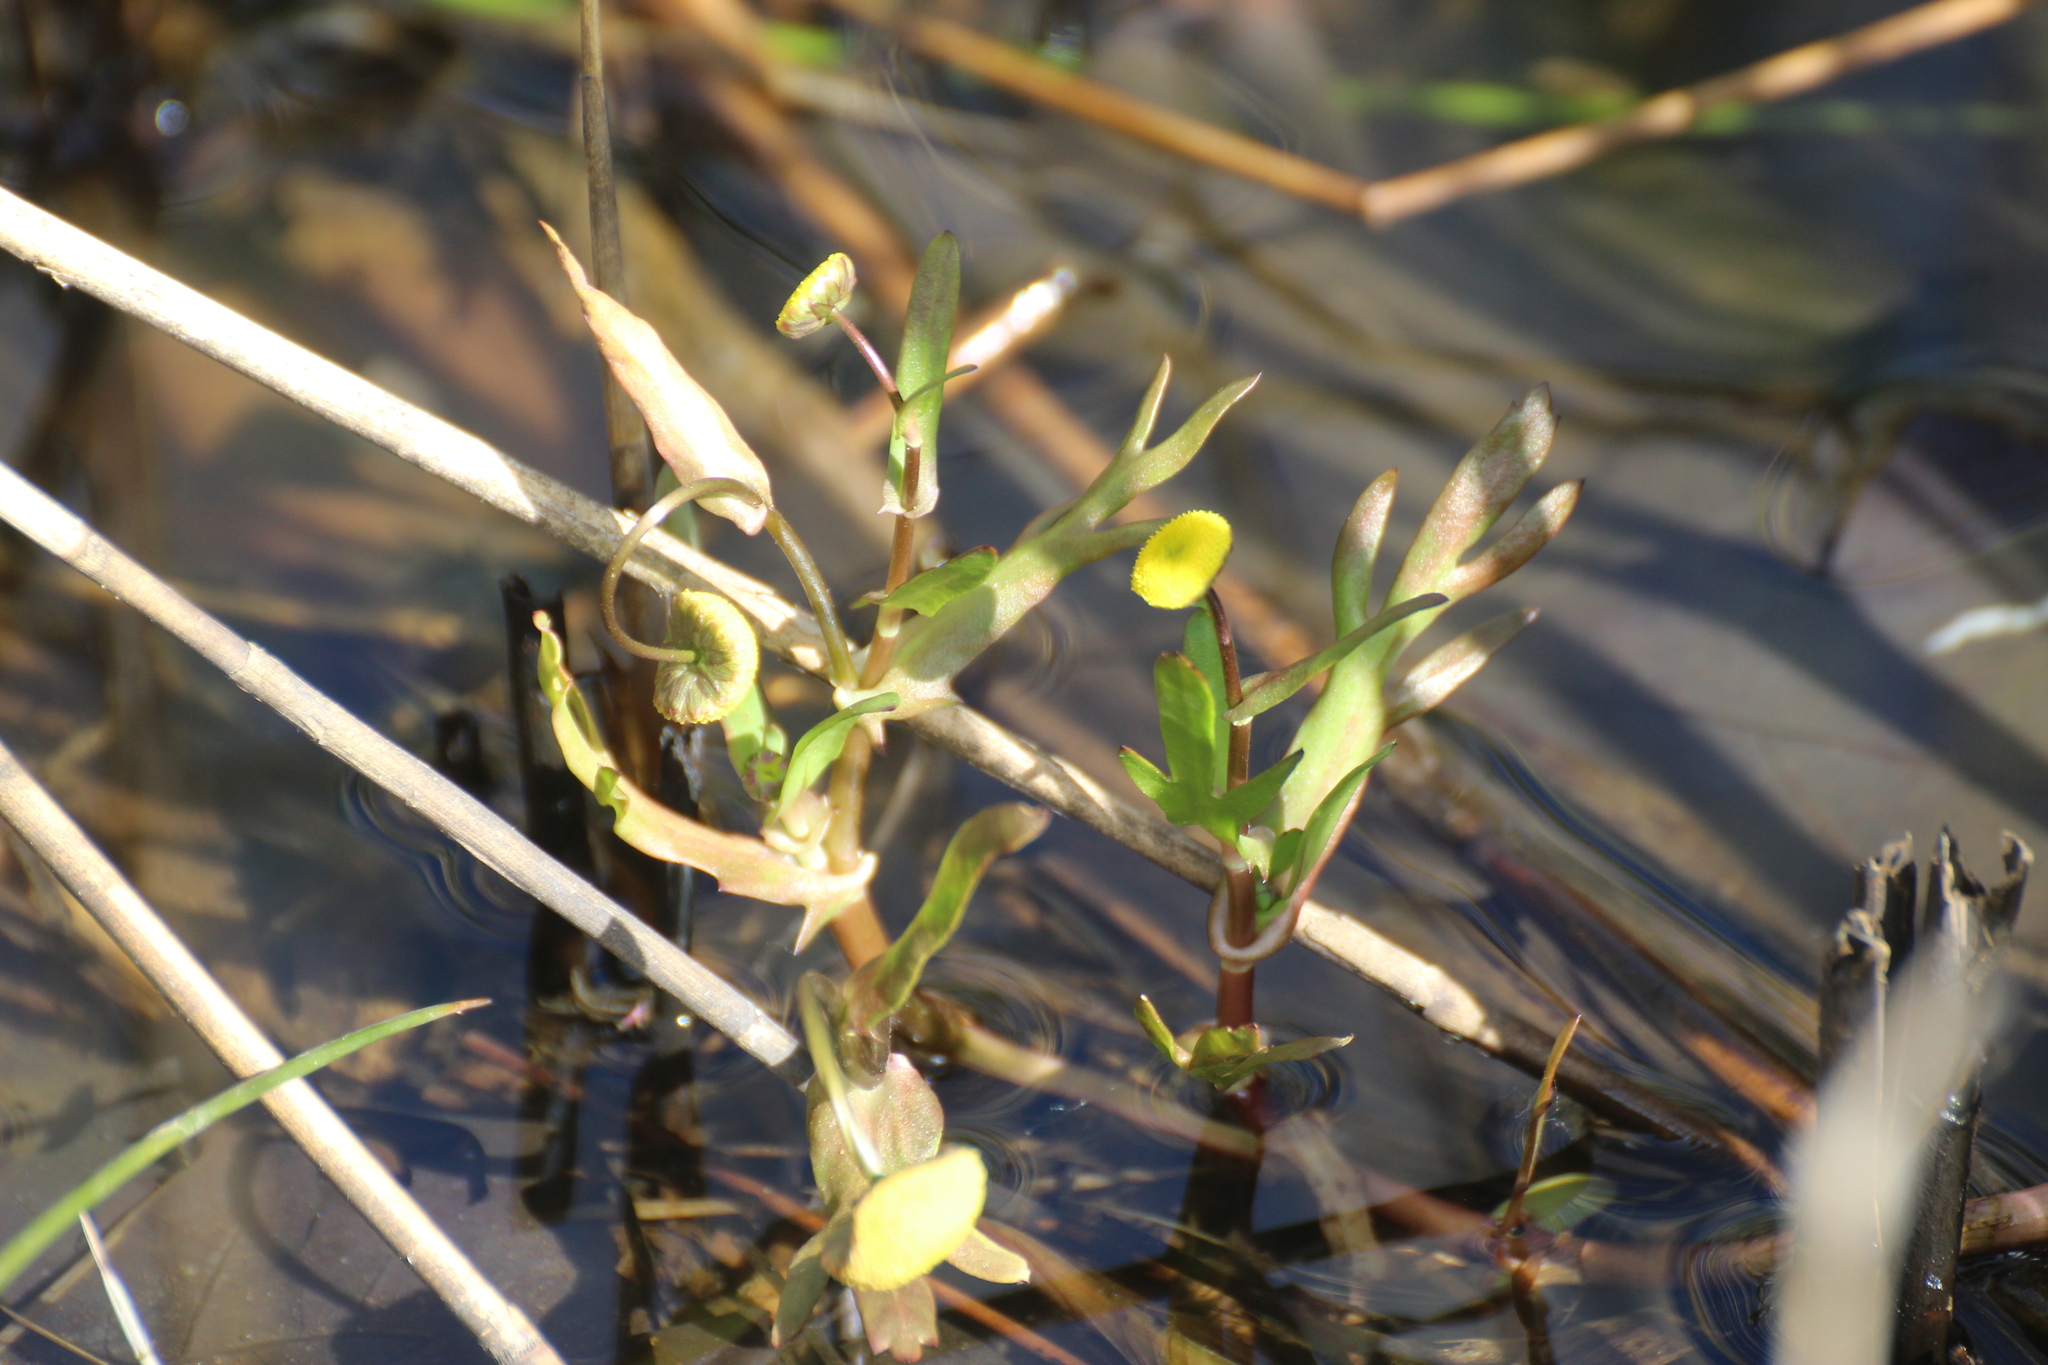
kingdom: Plantae
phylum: Tracheophyta
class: Magnoliopsida
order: Ranunculales
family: Ranunculaceae
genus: Caltha
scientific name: Caltha palustris
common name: Marsh marigold
